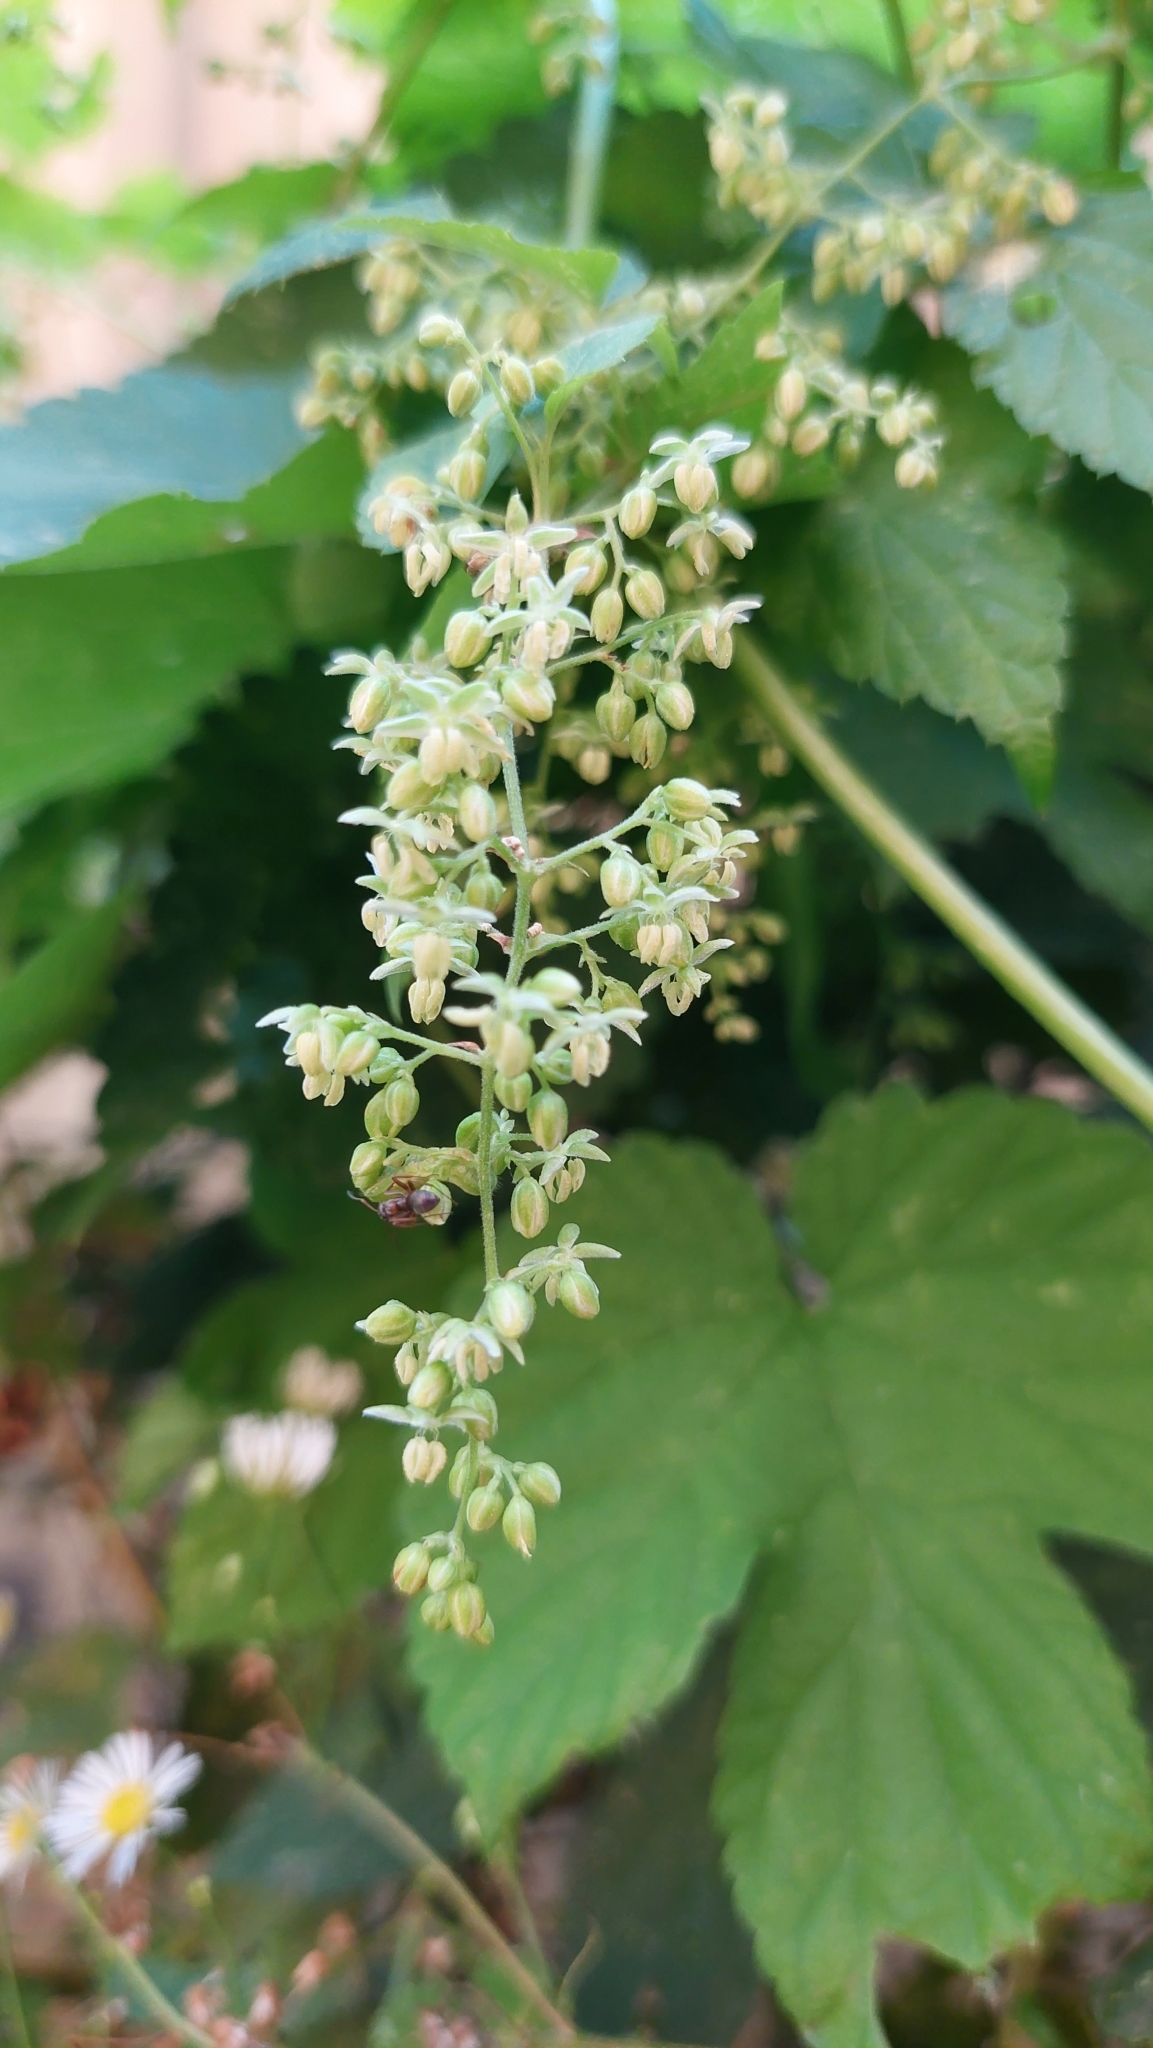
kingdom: Plantae
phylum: Tracheophyta
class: Magnoliopsida
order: Rosales
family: Cannabaceae
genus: Humulus
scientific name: Humulus lupulus
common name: Hop
